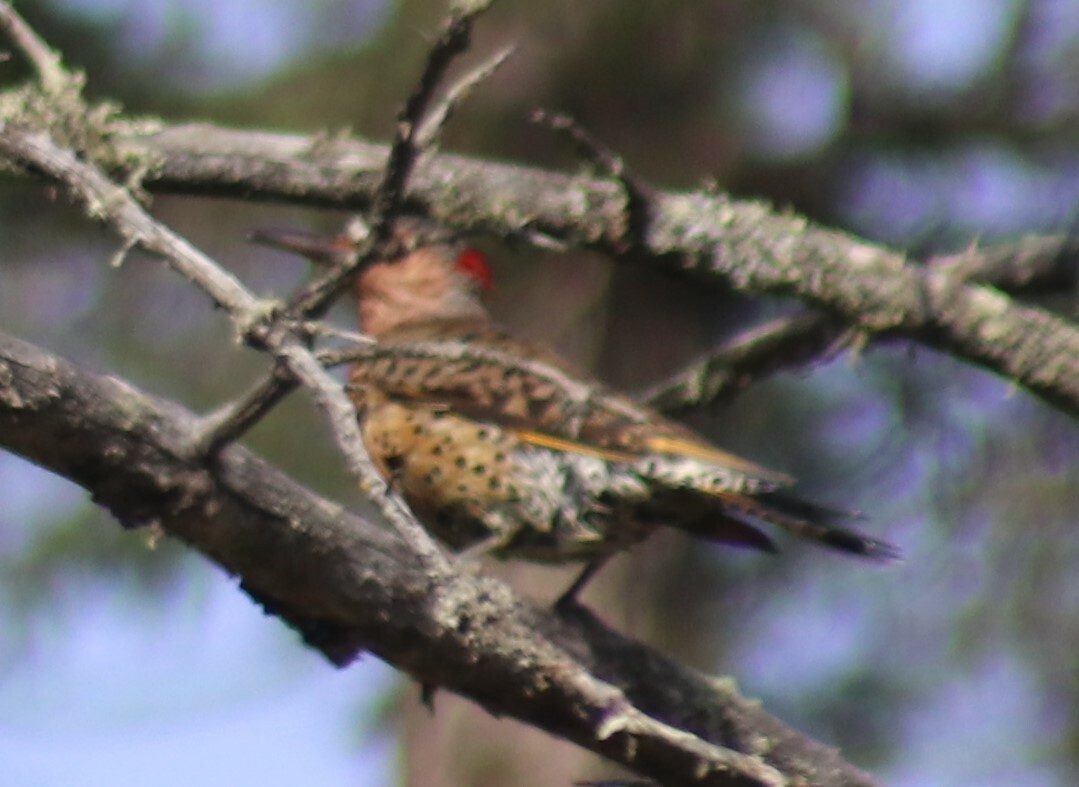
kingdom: Animalia
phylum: Chordata
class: Aves
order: Piciformes
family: Picidae
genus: Colaptes
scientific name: Colaptes auratus
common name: Northern flicker
